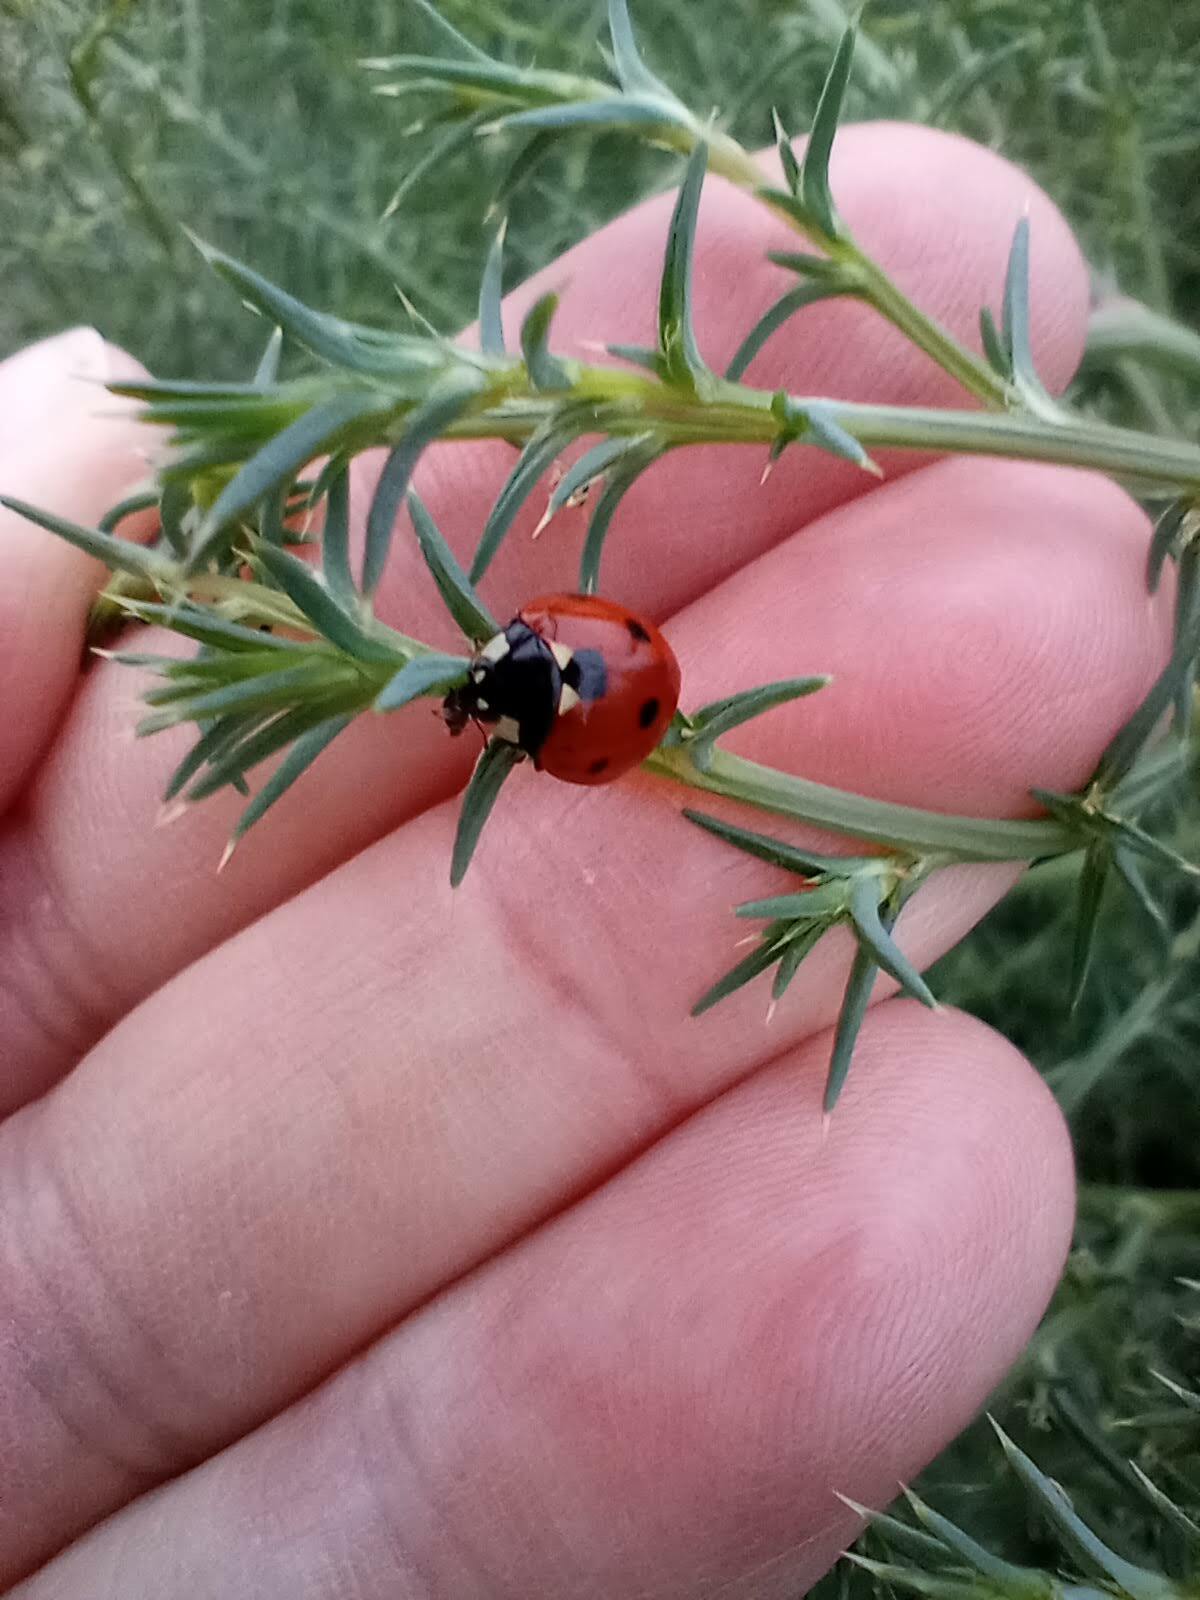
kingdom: Animalia
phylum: Arthropoda
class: Insecta
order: Coleoptera
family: Coccinellidae
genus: Coccinella
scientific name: Coccinella septempunctata
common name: Sevenspotted lady beetle
